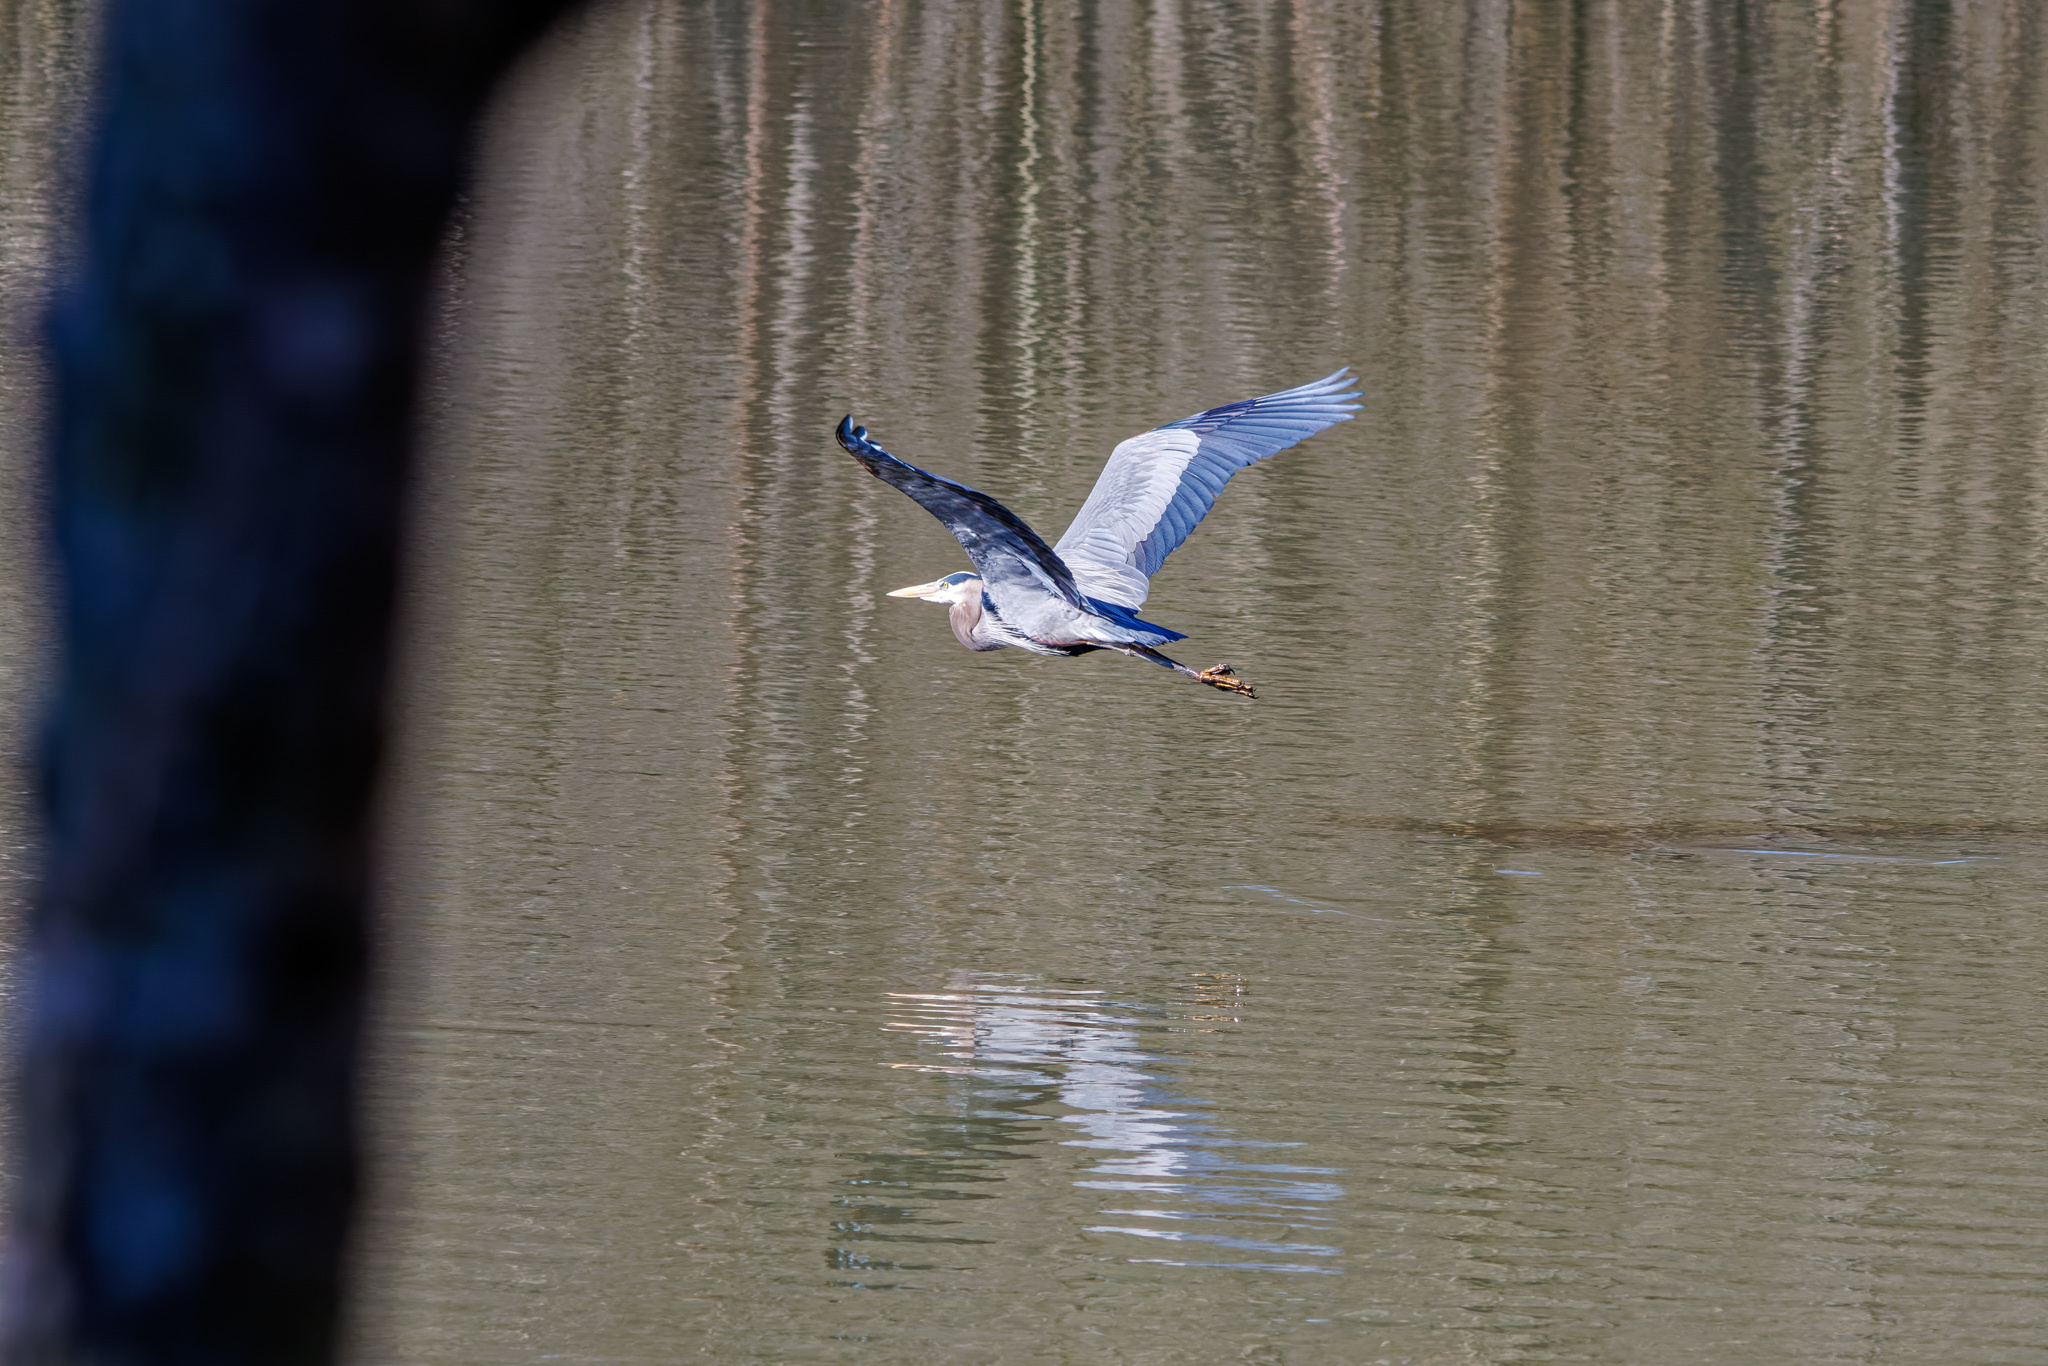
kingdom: Animalia
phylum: Chordata
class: Aves
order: Pelecaniformes
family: Ardeidae
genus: Ardea
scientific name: Ardea herodias
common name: Great blue heron
